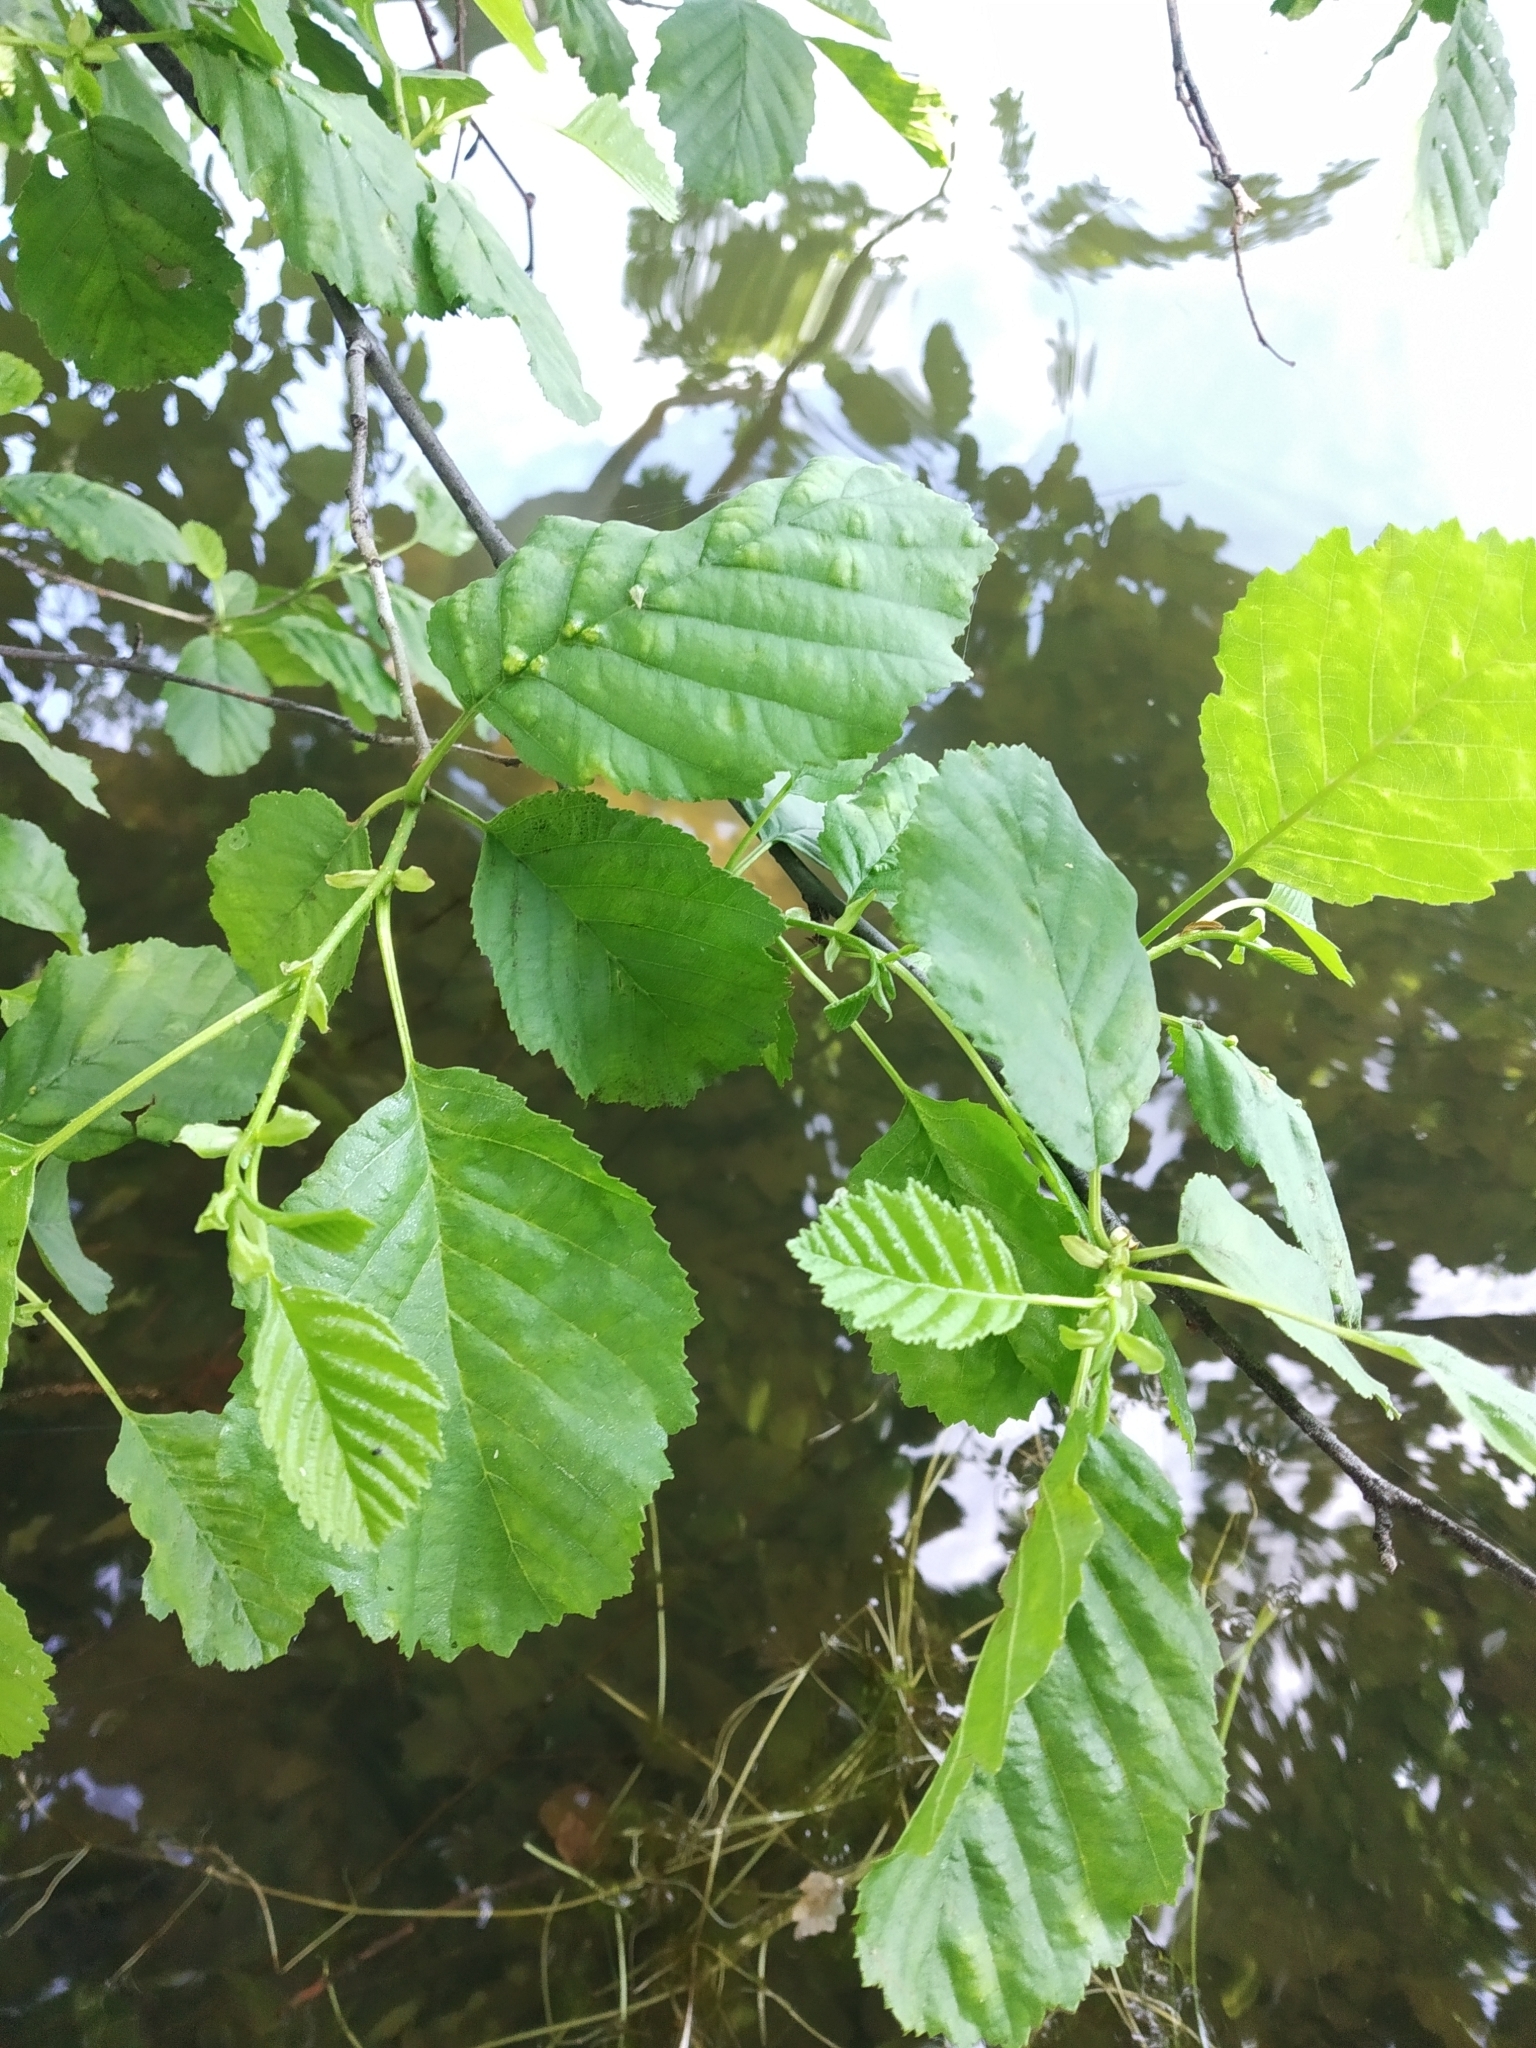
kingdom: Plantae
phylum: Tracheophyta
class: Magnoliopsida
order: Fagales
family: Betulaceae
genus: Alnus
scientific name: Alnus glutinosa
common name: Black alder
